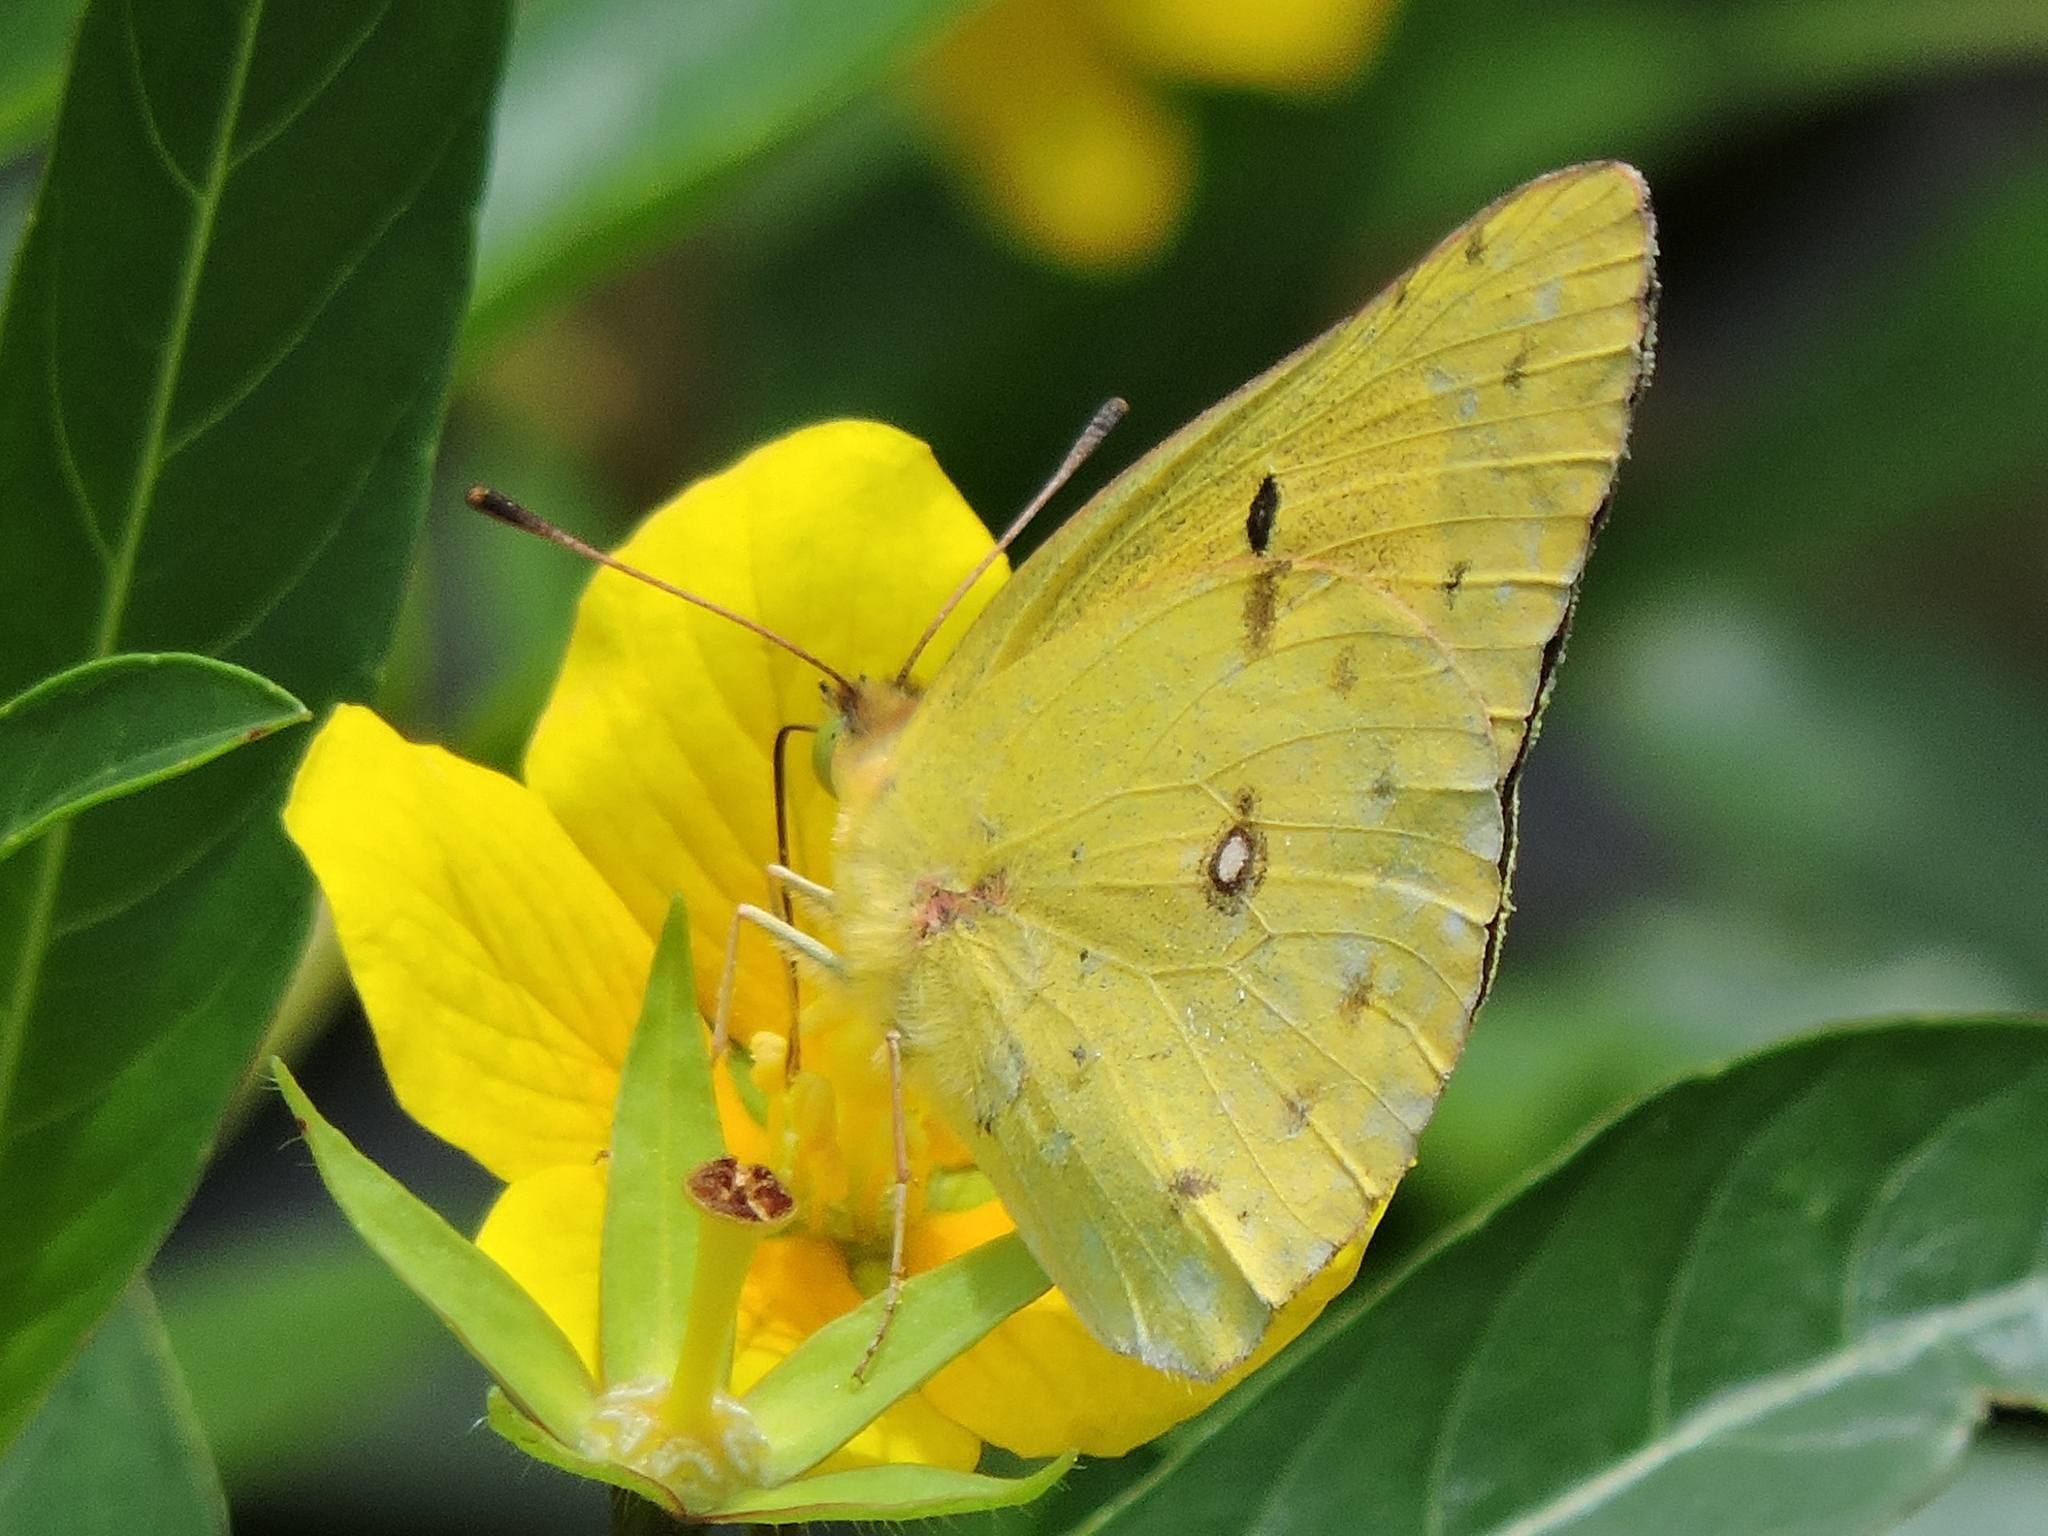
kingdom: Animalia
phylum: Arthropoda
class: Insecta
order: Lepidoptera
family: Pieridae
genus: Colias
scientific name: Colias eurytheme
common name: Alfalfa butterfly
